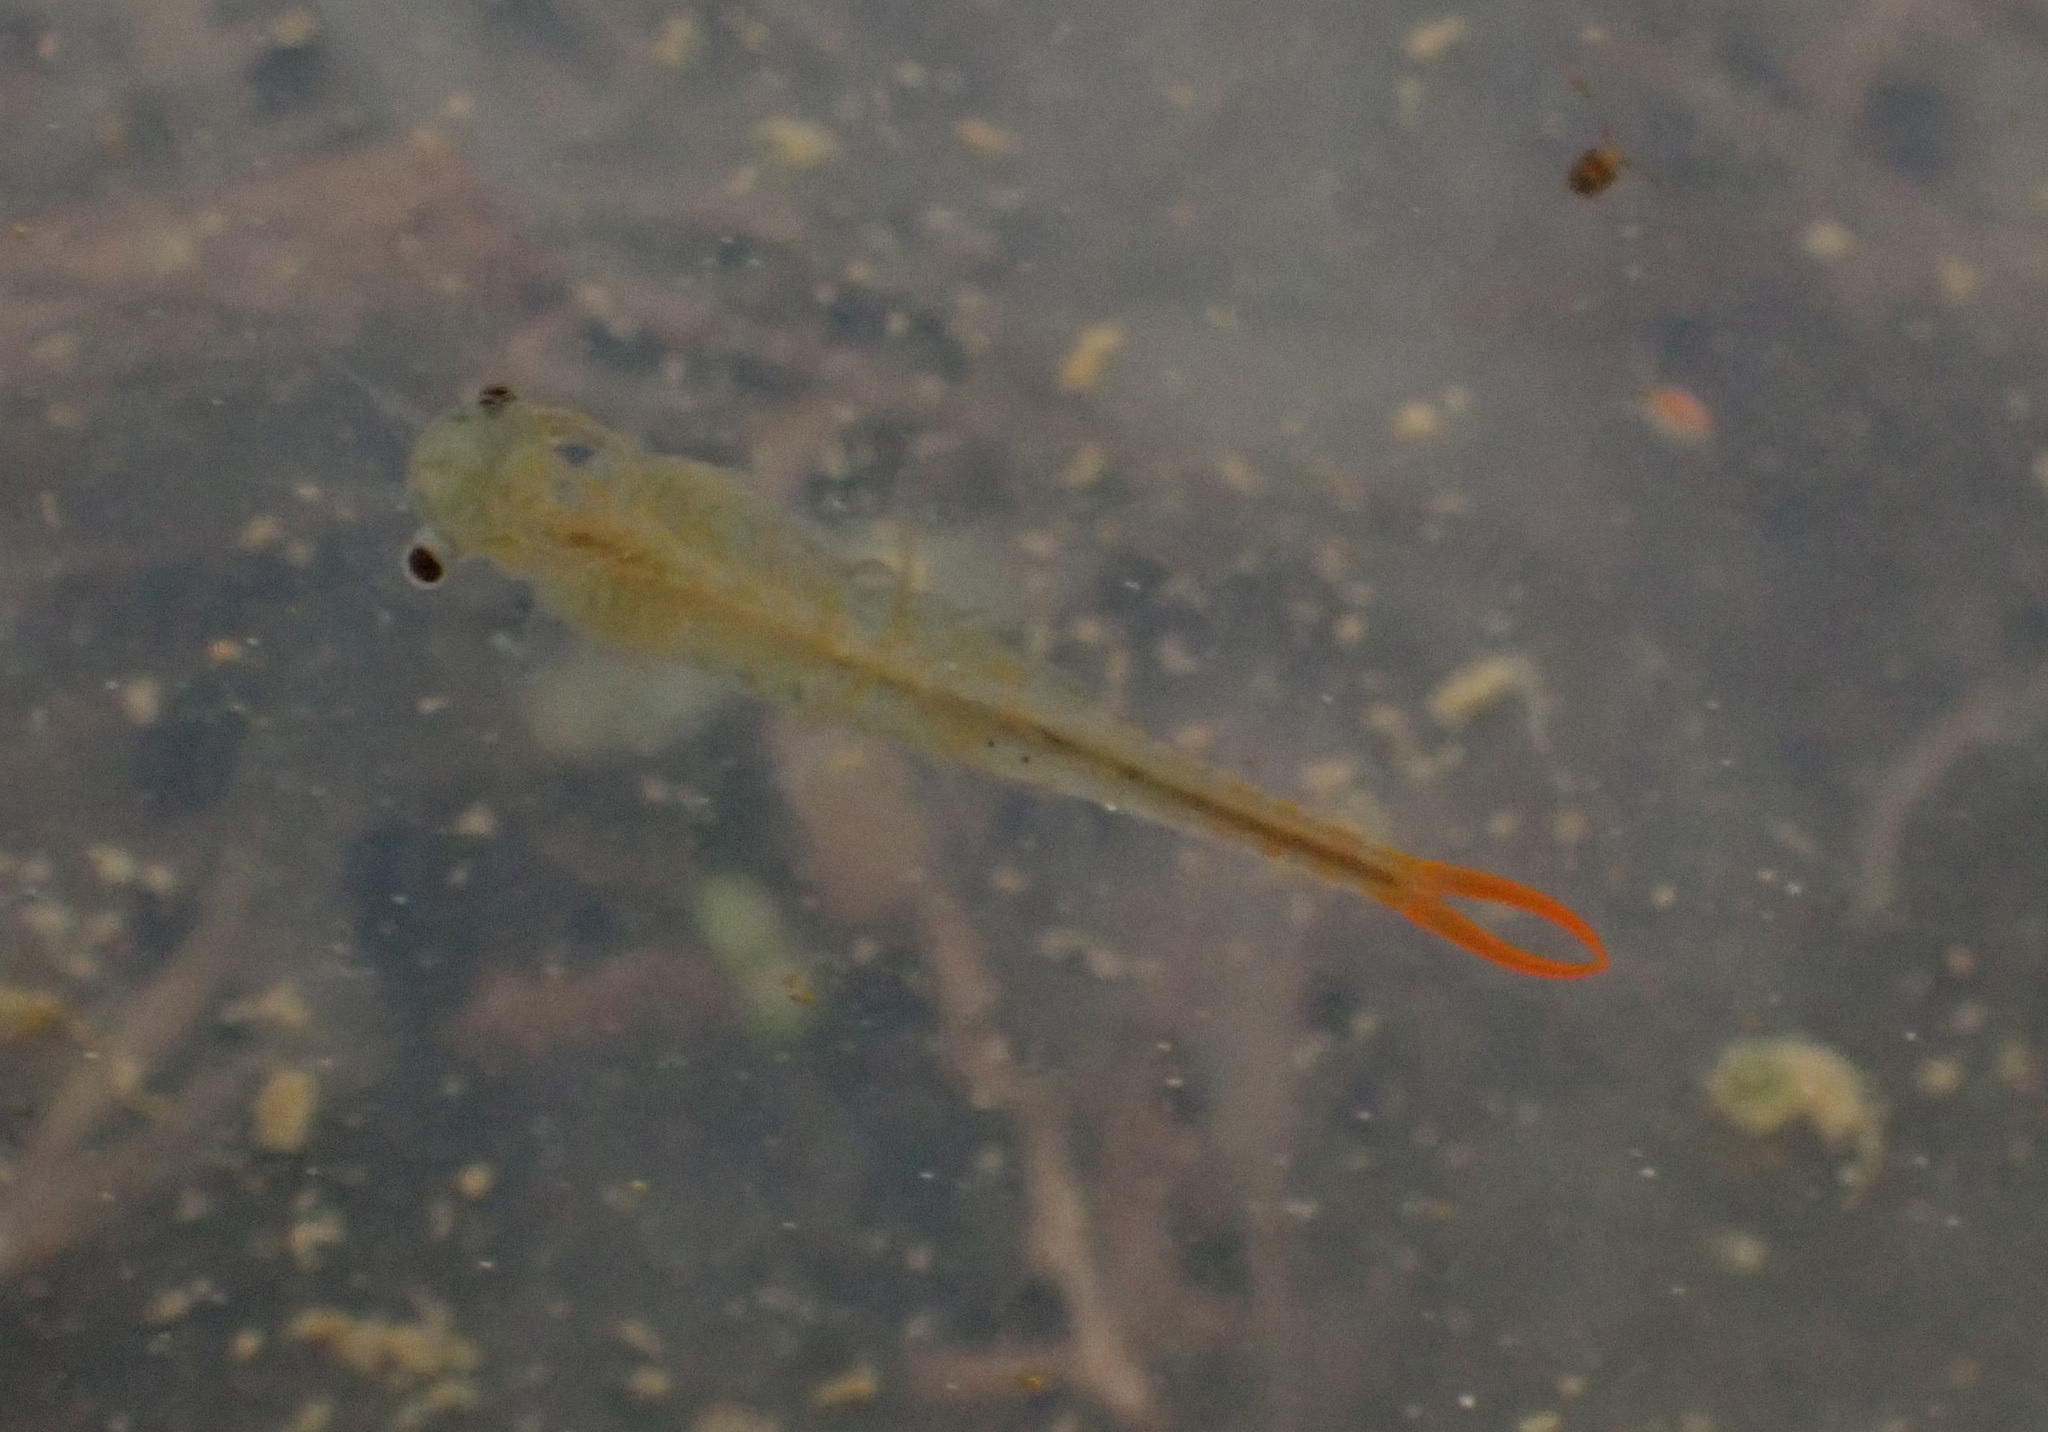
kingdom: Animalia
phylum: Arthropoda
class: Branchiopoda
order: Anostraca
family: Branchipodidae
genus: Branchipus
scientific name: Branchipus schaefferi
